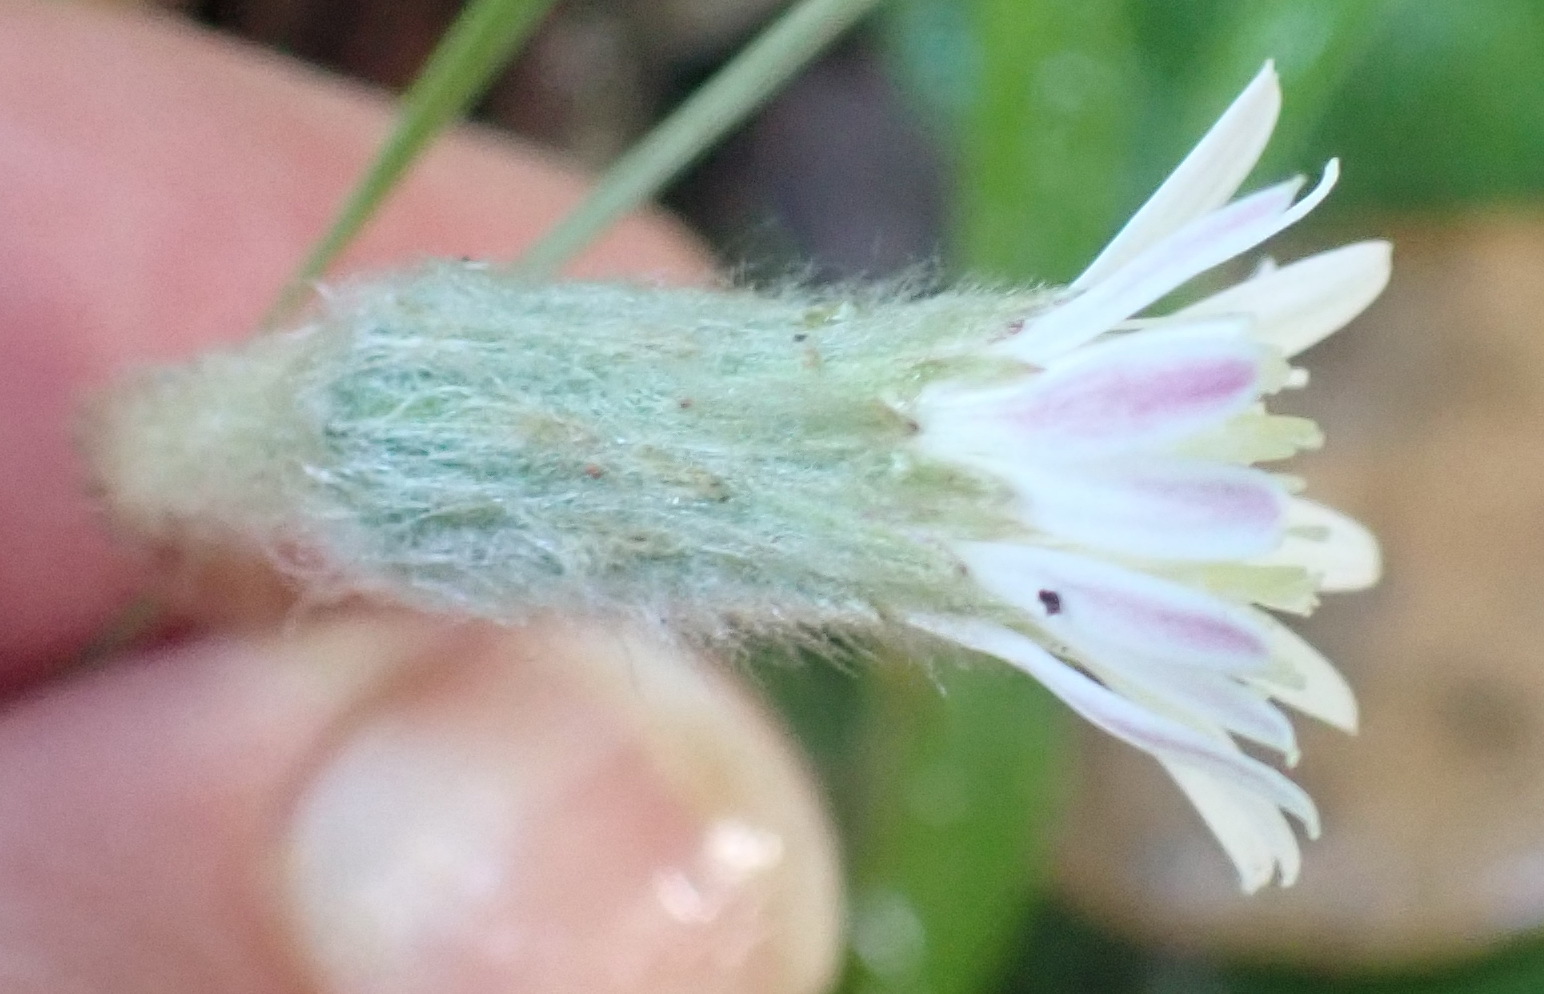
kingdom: Plantae
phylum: Tracheophyta
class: Magnoliopsida
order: Asterales
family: Asteraceae
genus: Piloselloides
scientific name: Piloselloides cordata
